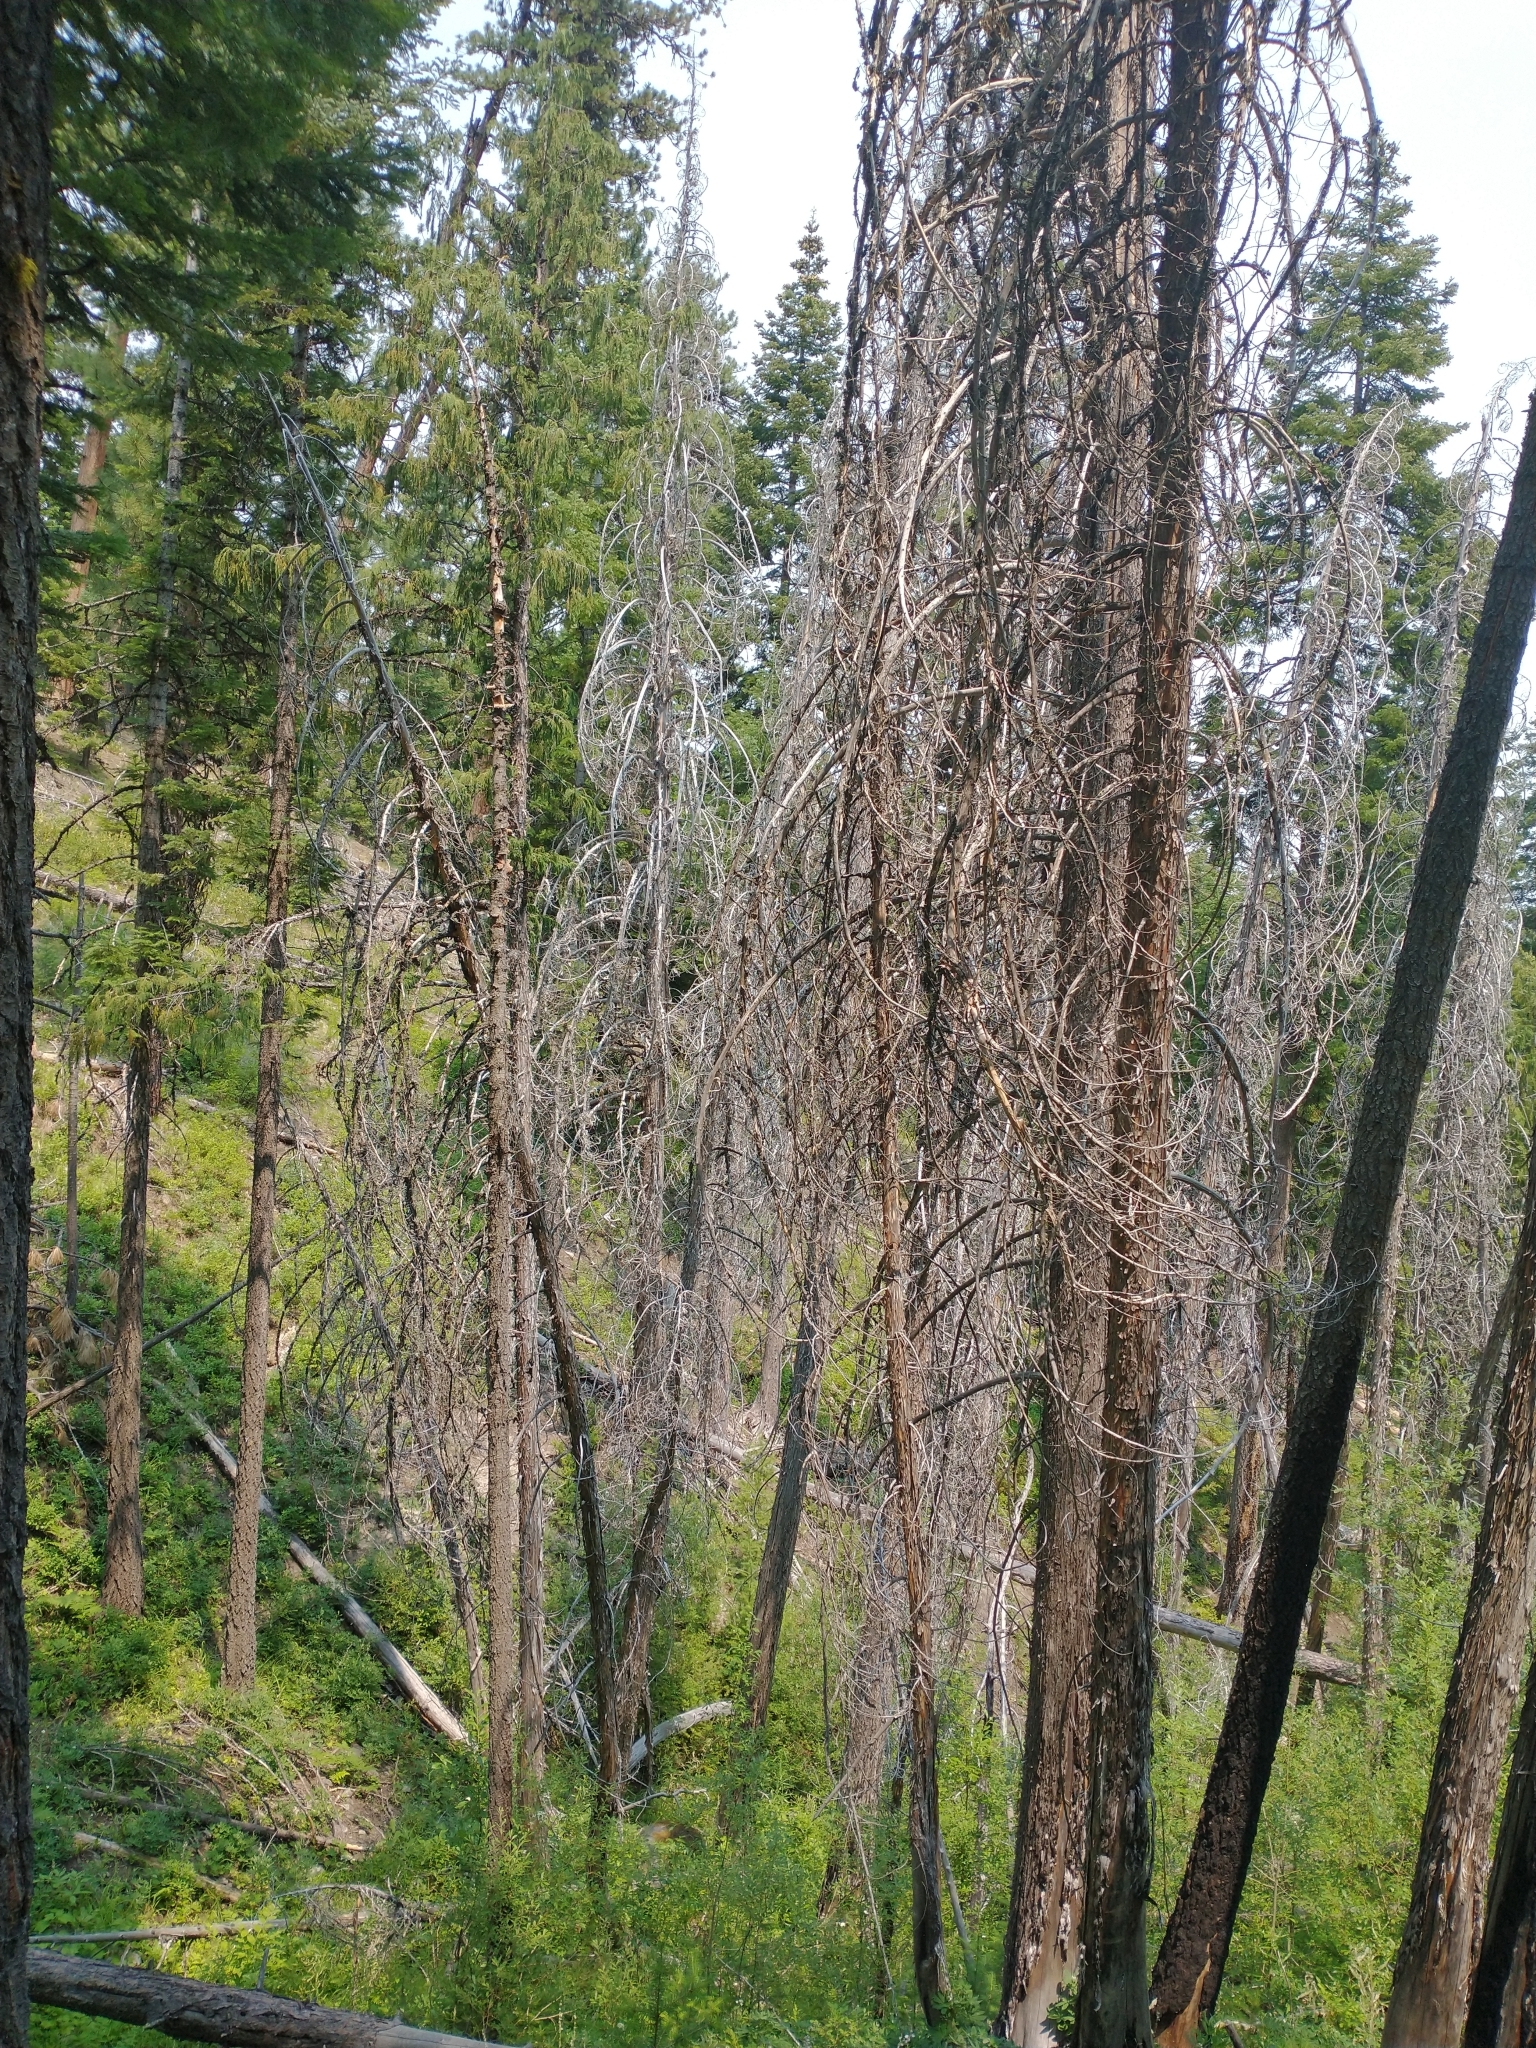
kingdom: Plantae
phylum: Tracheophyta
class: Pinopsida
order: Pinales
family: Cupressaceae
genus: Xanthocyparis
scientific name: Xanthocyparis nootkatensis
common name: Nootka cypress
